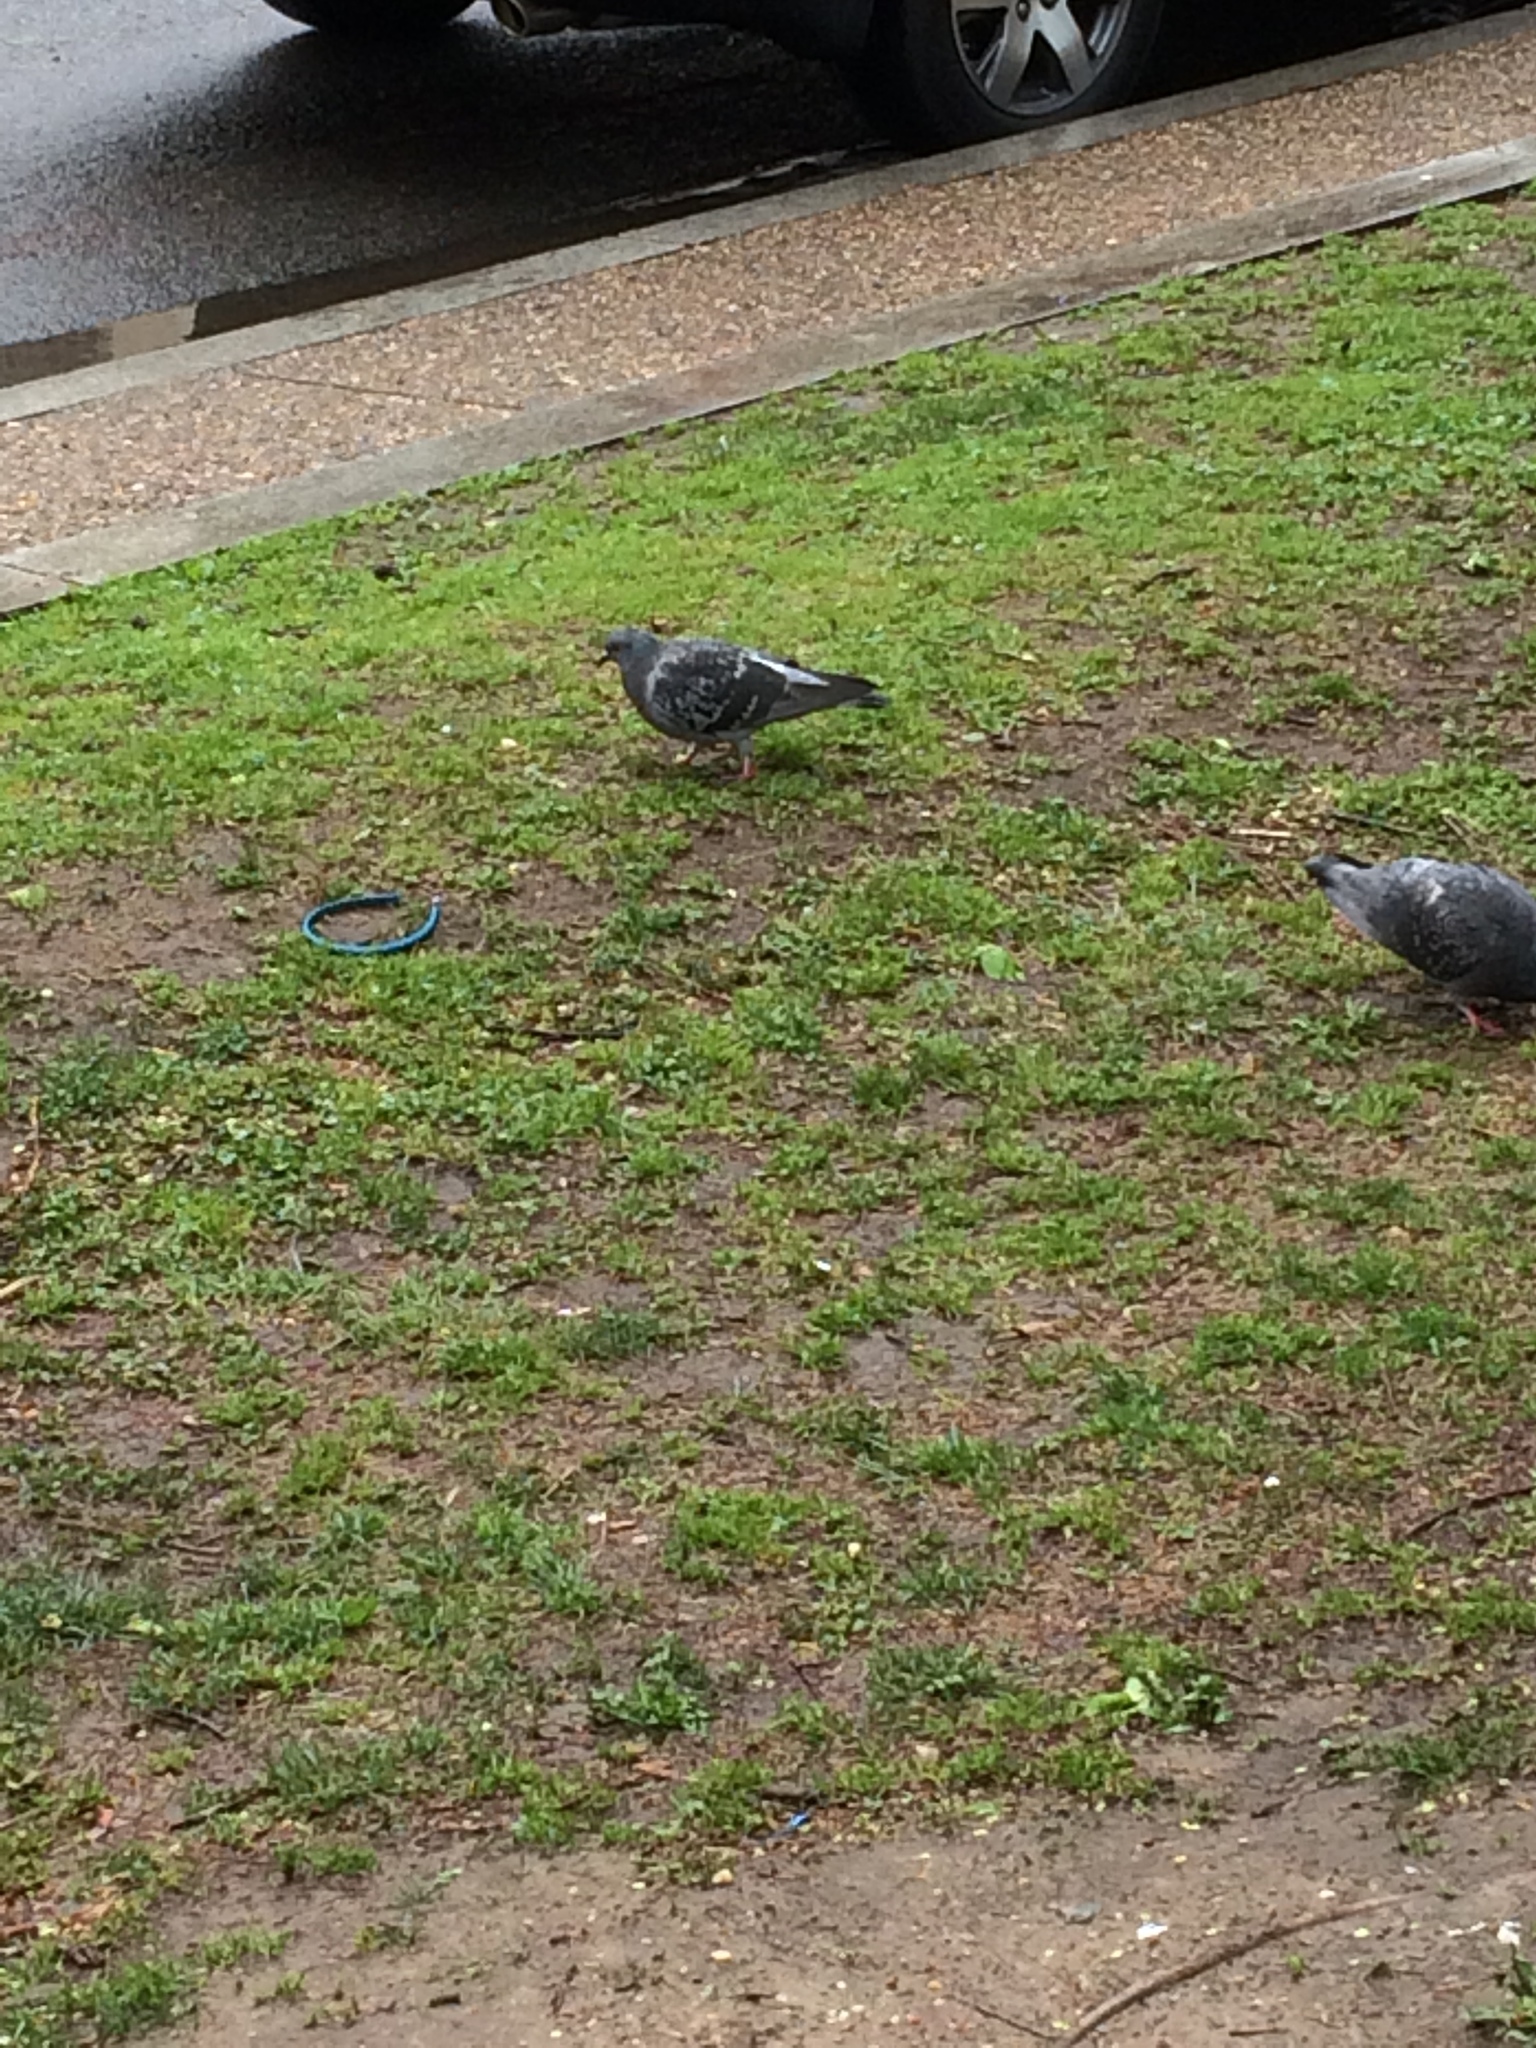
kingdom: Animalia
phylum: Chordata
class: Aves
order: Columbiformes
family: Columbidae
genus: Columba
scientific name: Columba livia
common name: Rock pigeon
